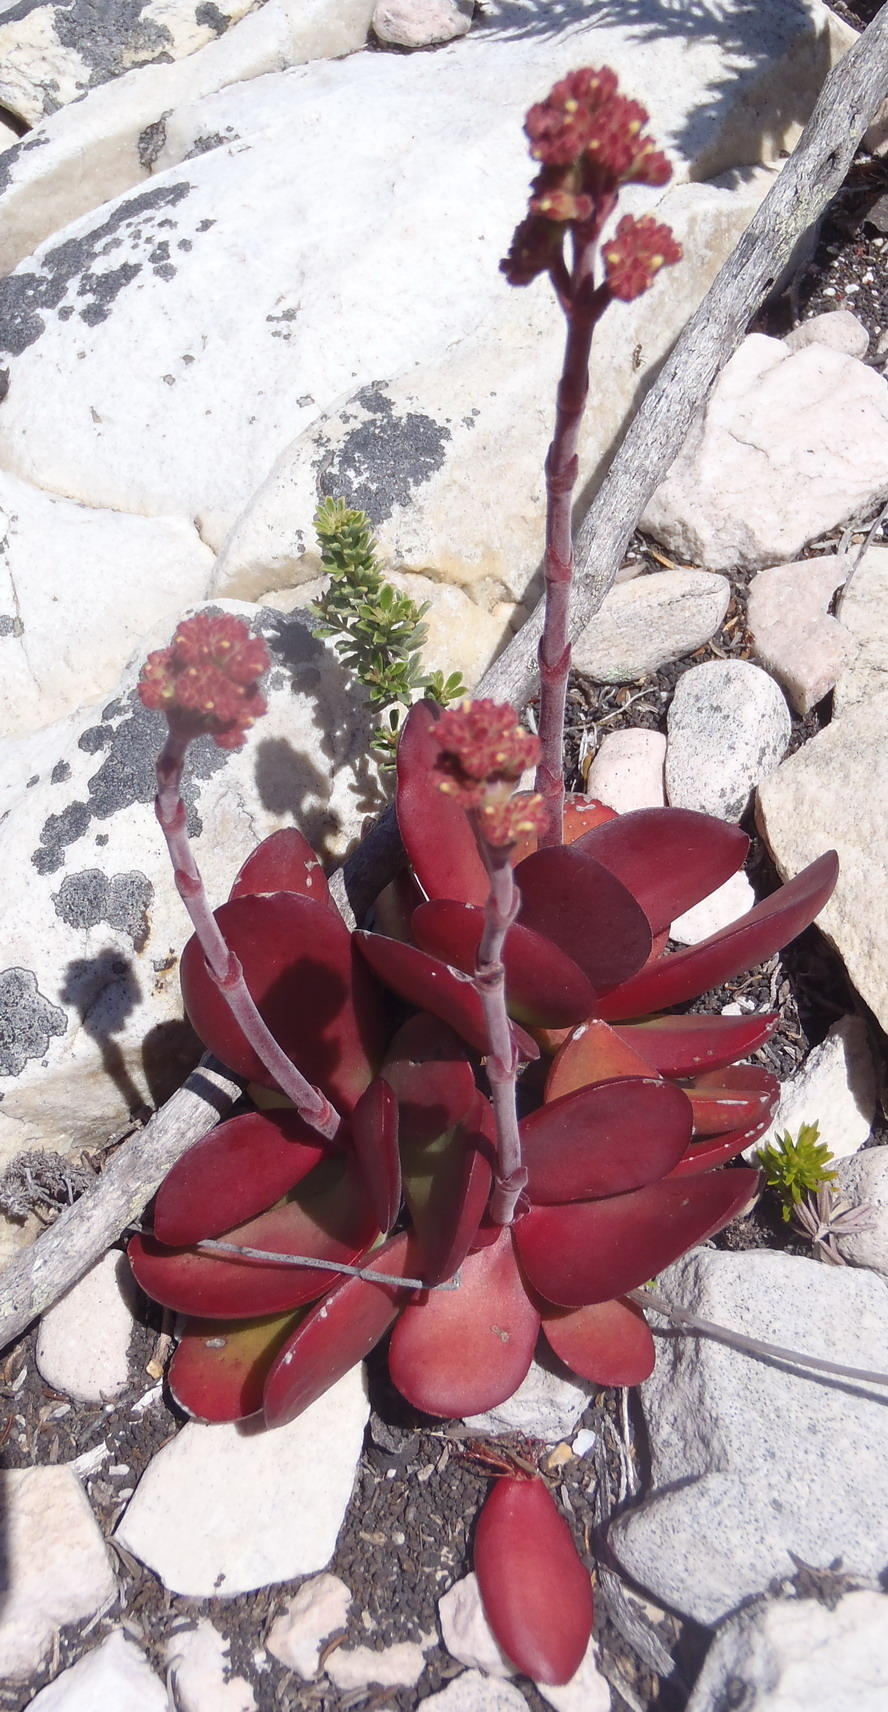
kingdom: Plantae
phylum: Tracheophyta
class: Magnoliopsida
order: Saxifragales
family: Crassulaceae
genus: Crassula
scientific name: Crassula atropurpurea
